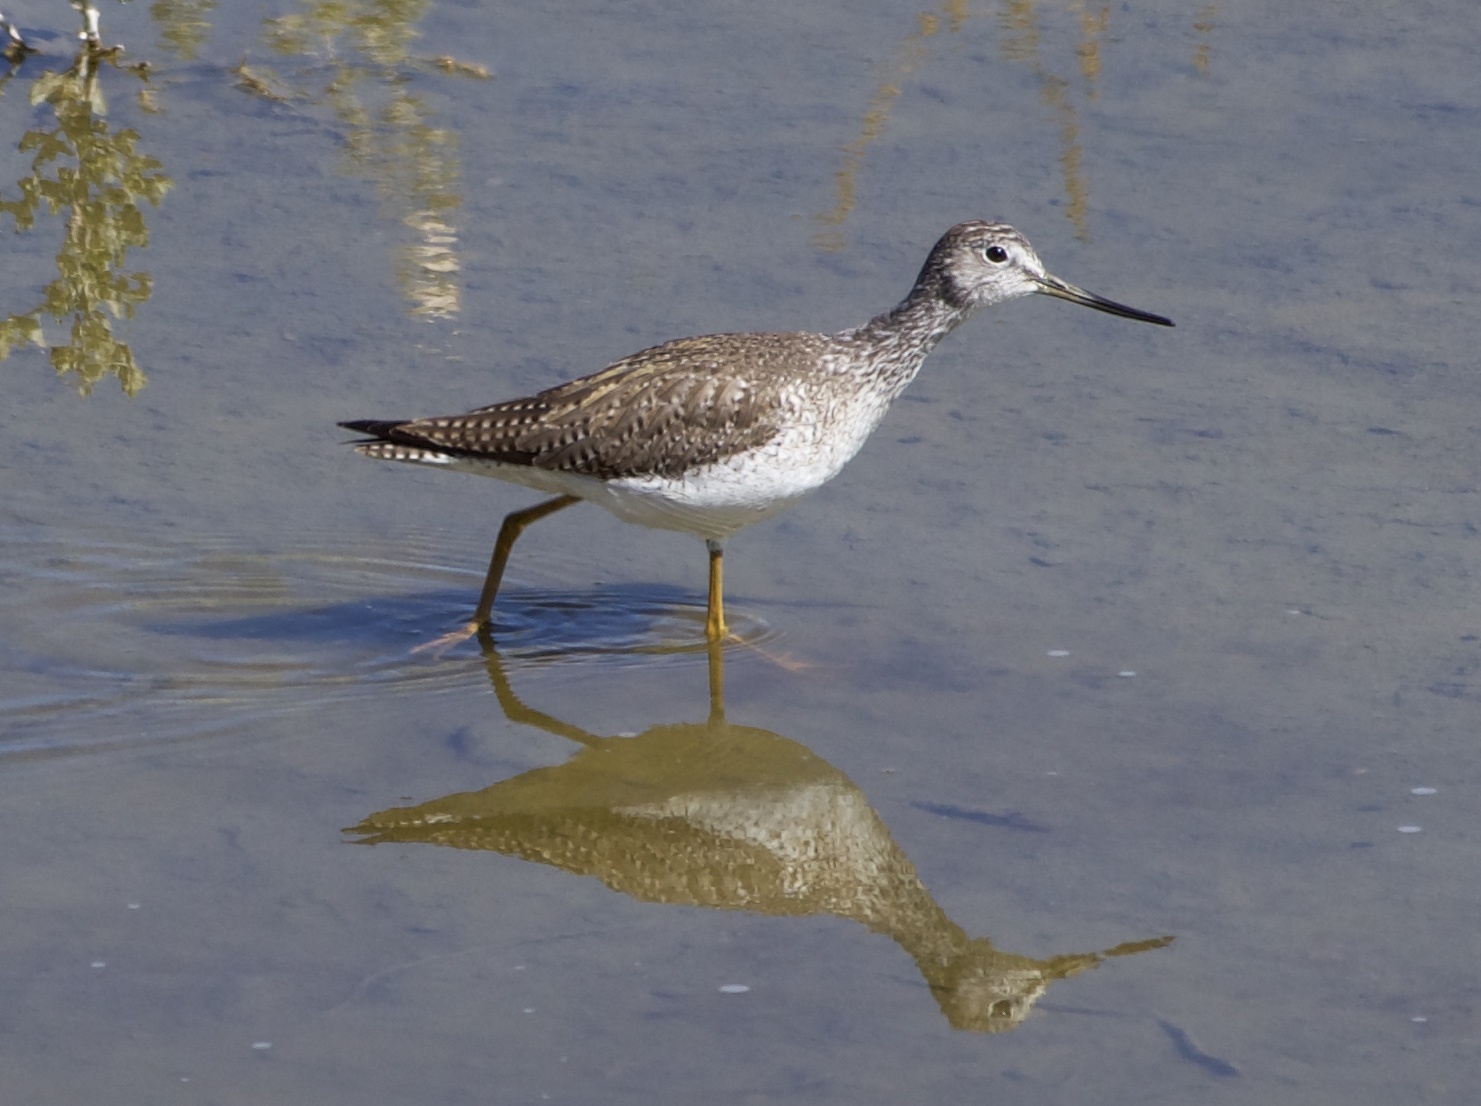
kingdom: Animalia
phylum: Chordata
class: Aves
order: Charadriiformes
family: Scolopacidae
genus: Tringa
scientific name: Tringa melanoleuca
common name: Greater yellowlegs
